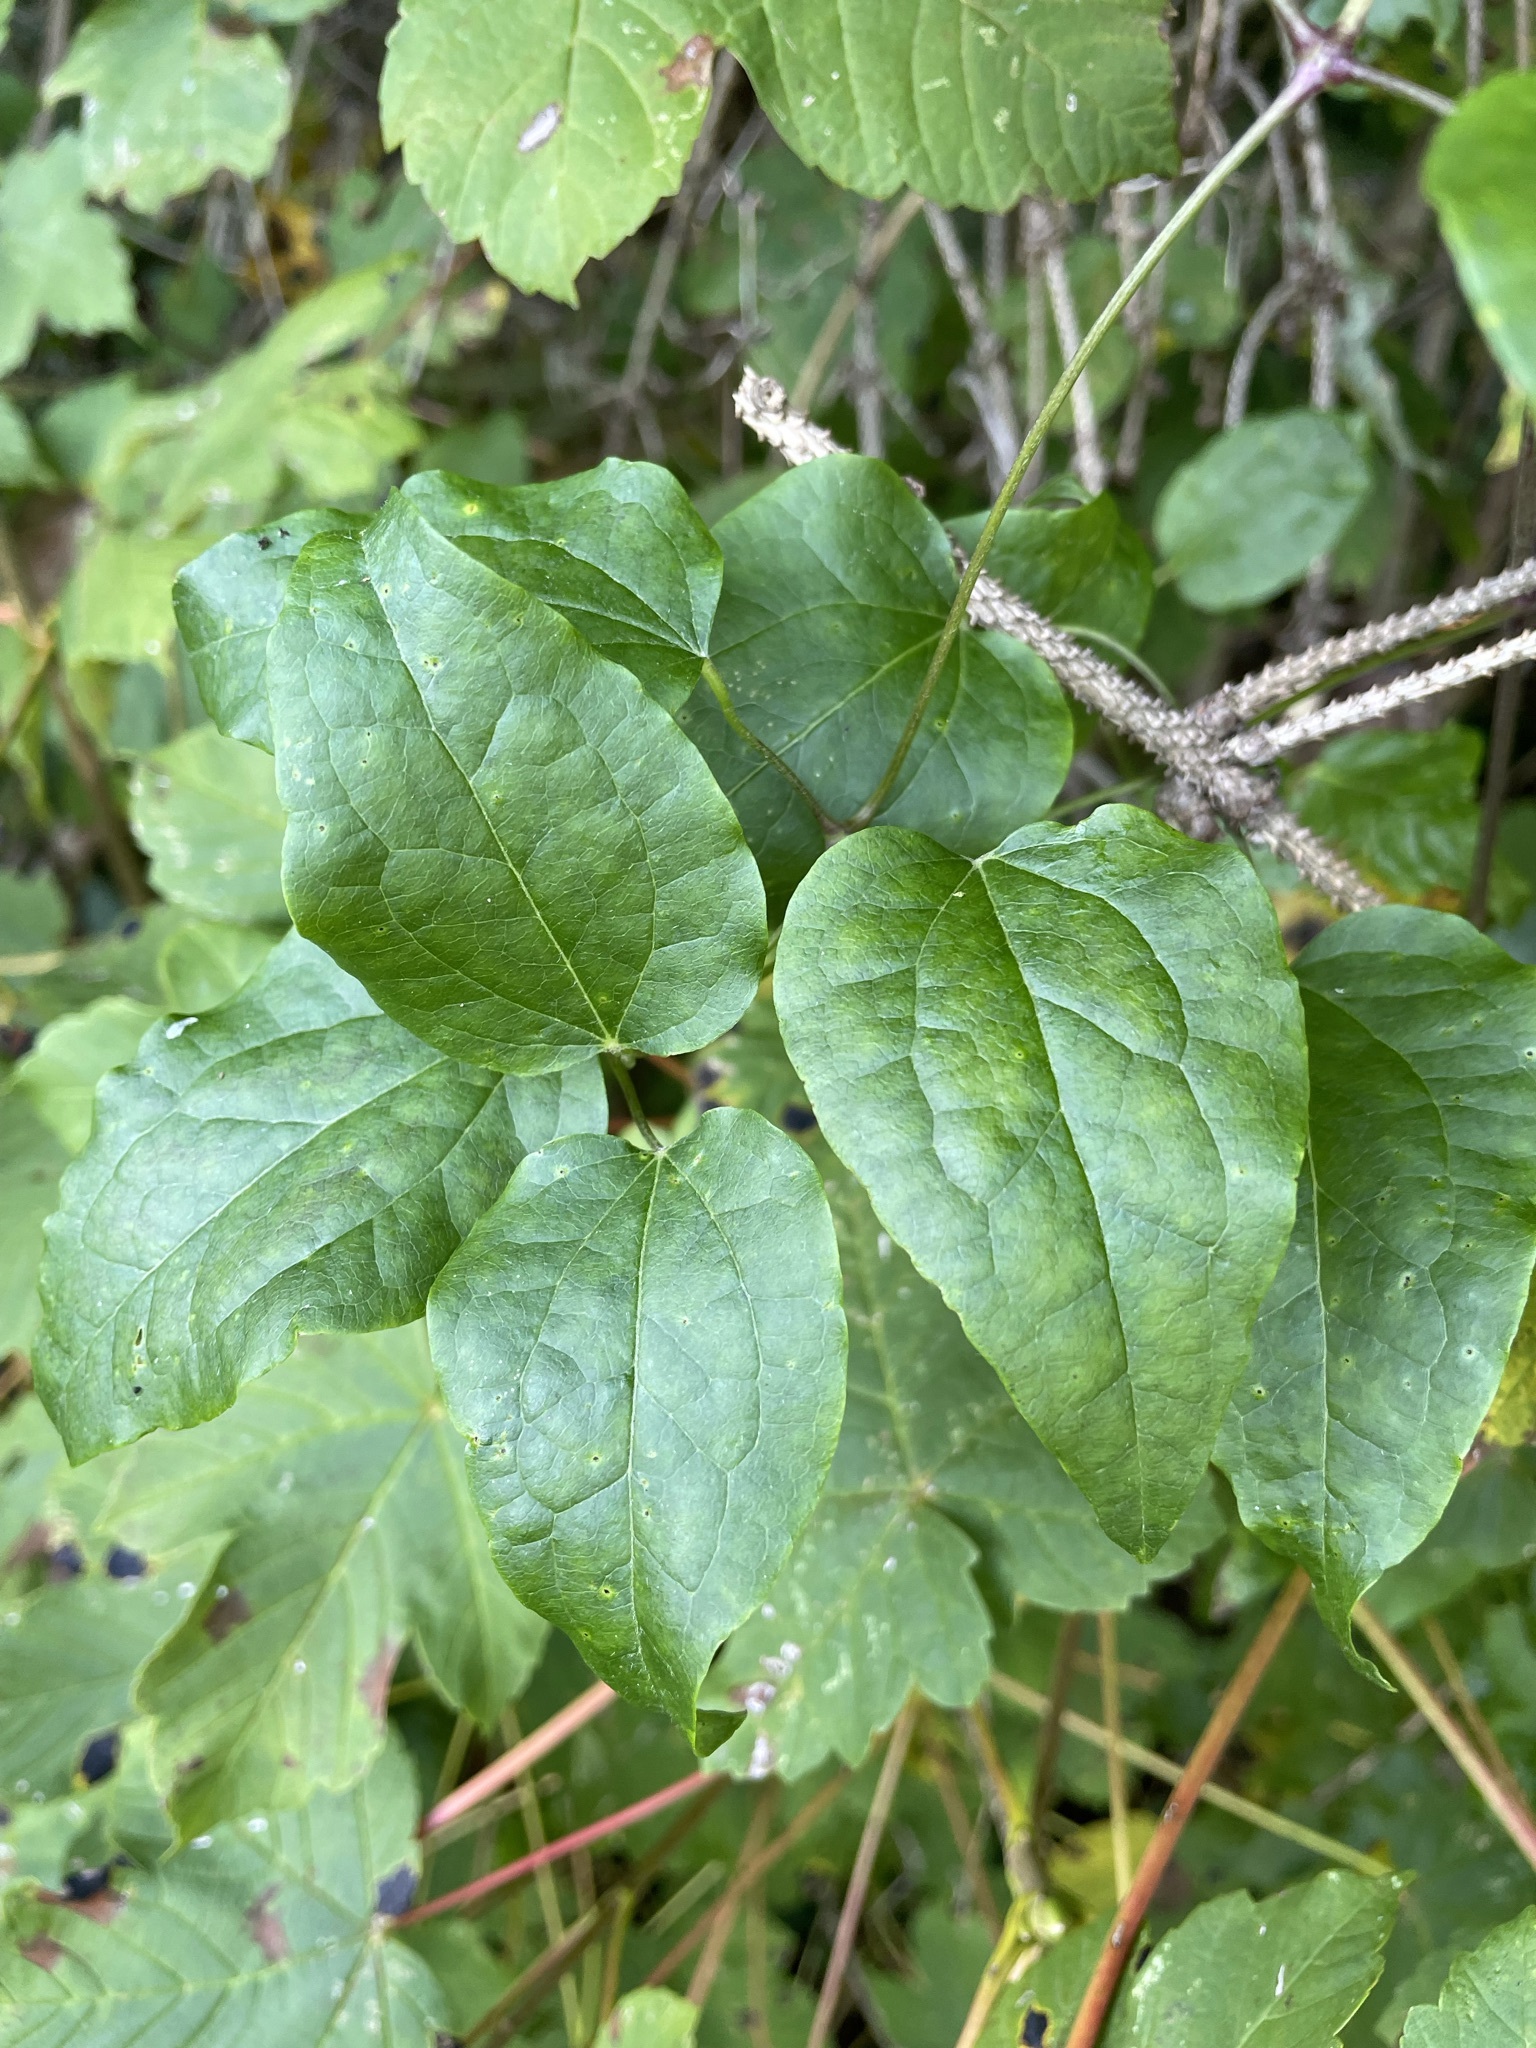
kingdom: Plantae
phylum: Tracheophyta
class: Magnoliopsida
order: Ranunculales
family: Ranunculaceae
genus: Clematis
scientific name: Clematis vitalba
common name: Evergreen clematis
